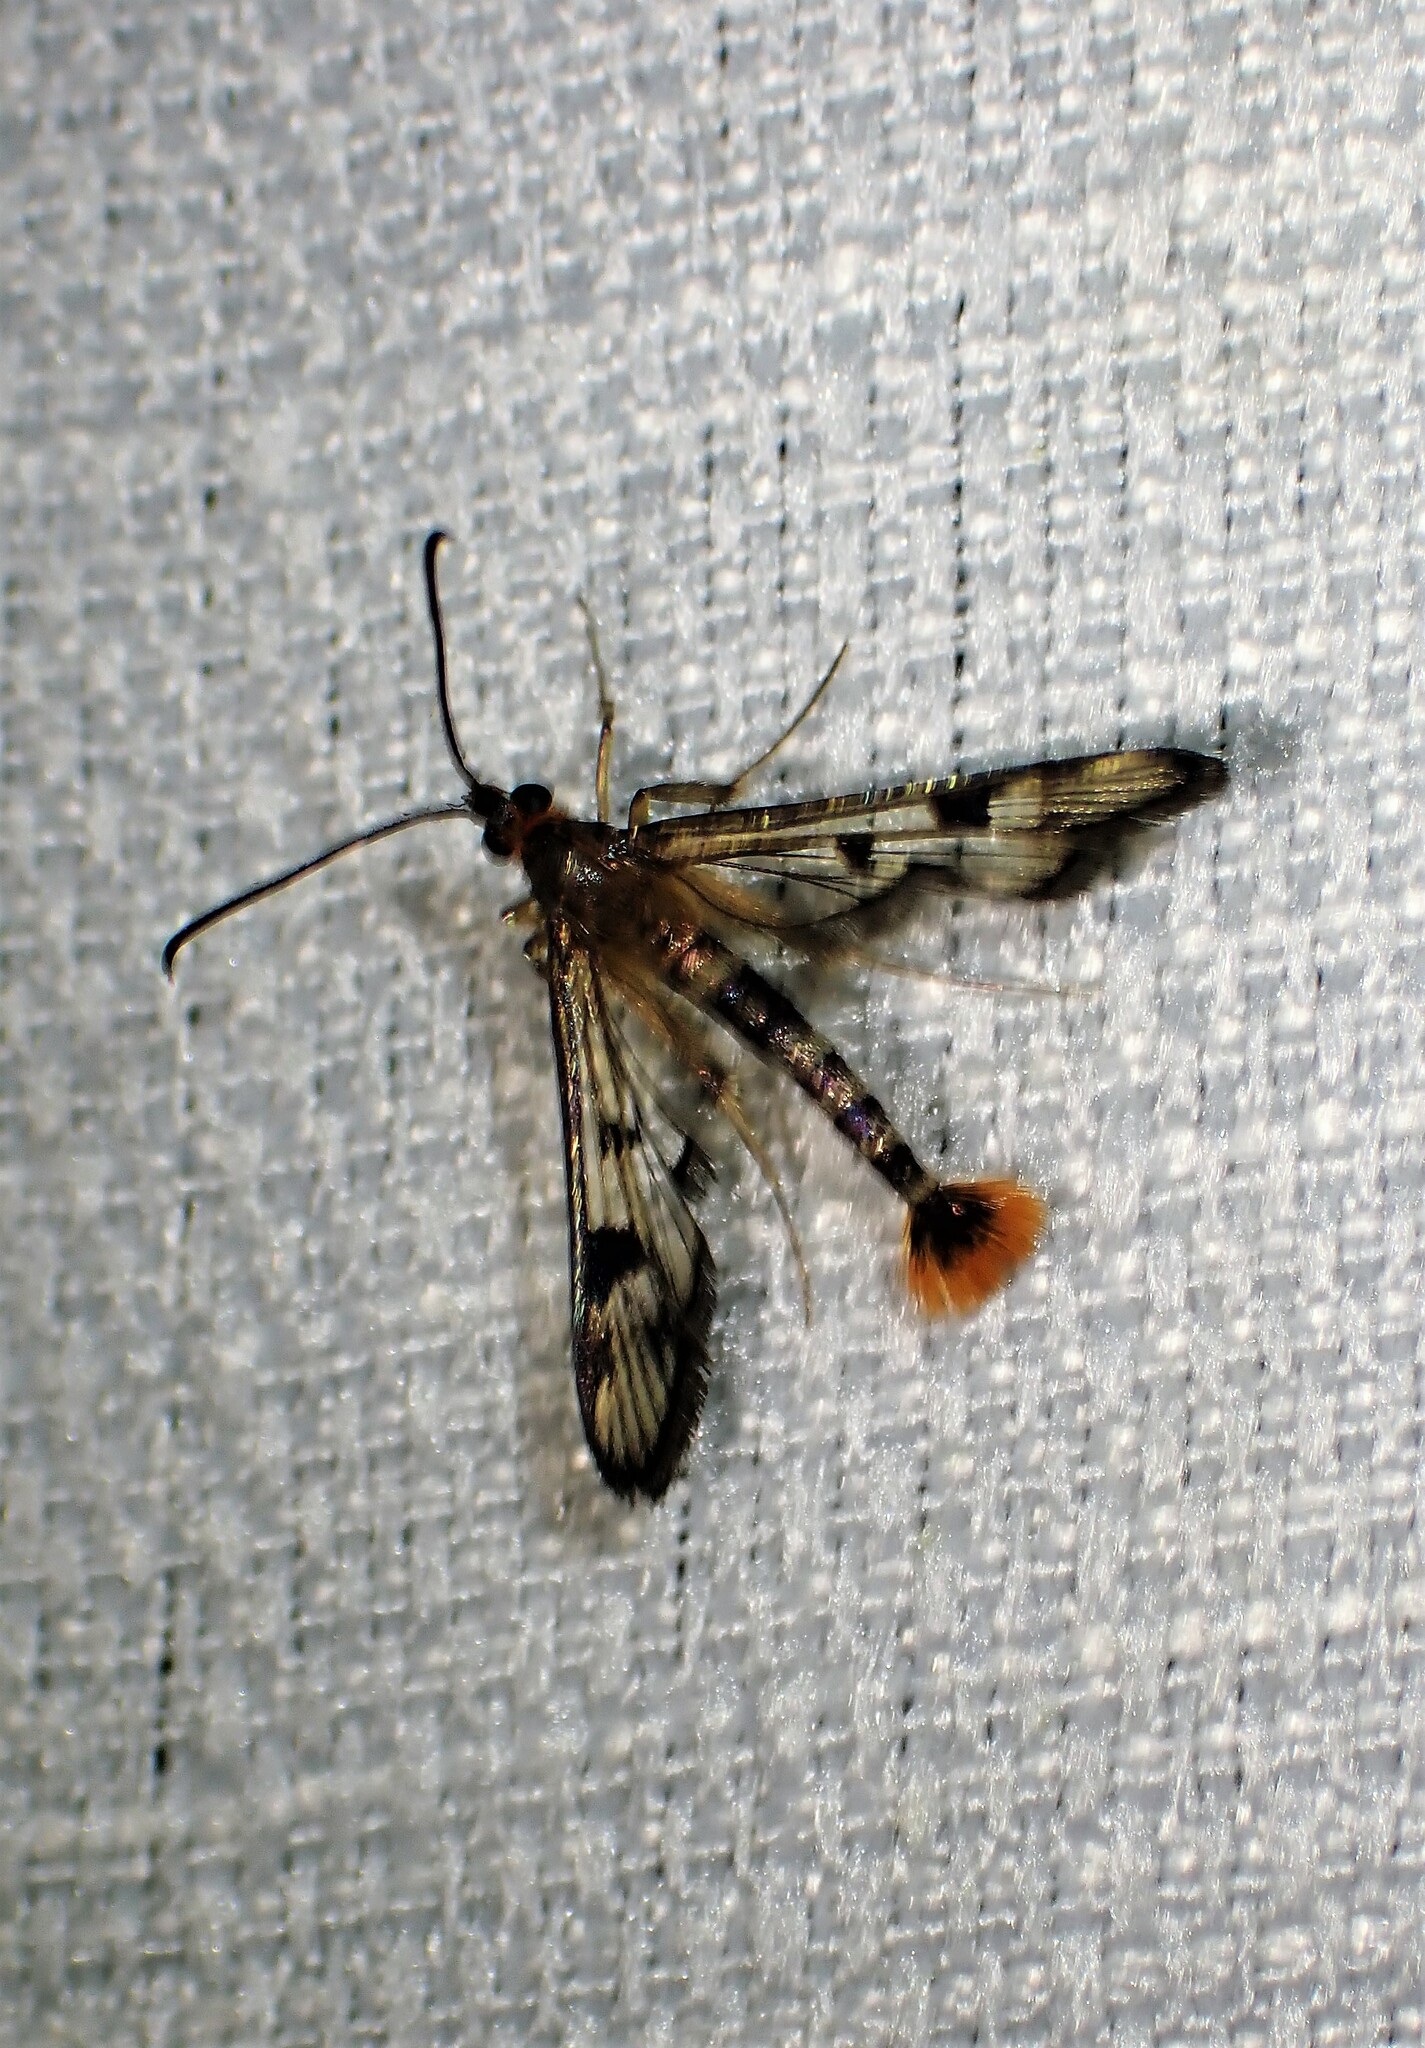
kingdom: Animalia
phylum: Arthropoda
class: Insecta
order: Lepidoptera
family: Sesiidae
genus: Synanthedon
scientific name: Synanthedon acerni
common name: Maple callus borer moth
